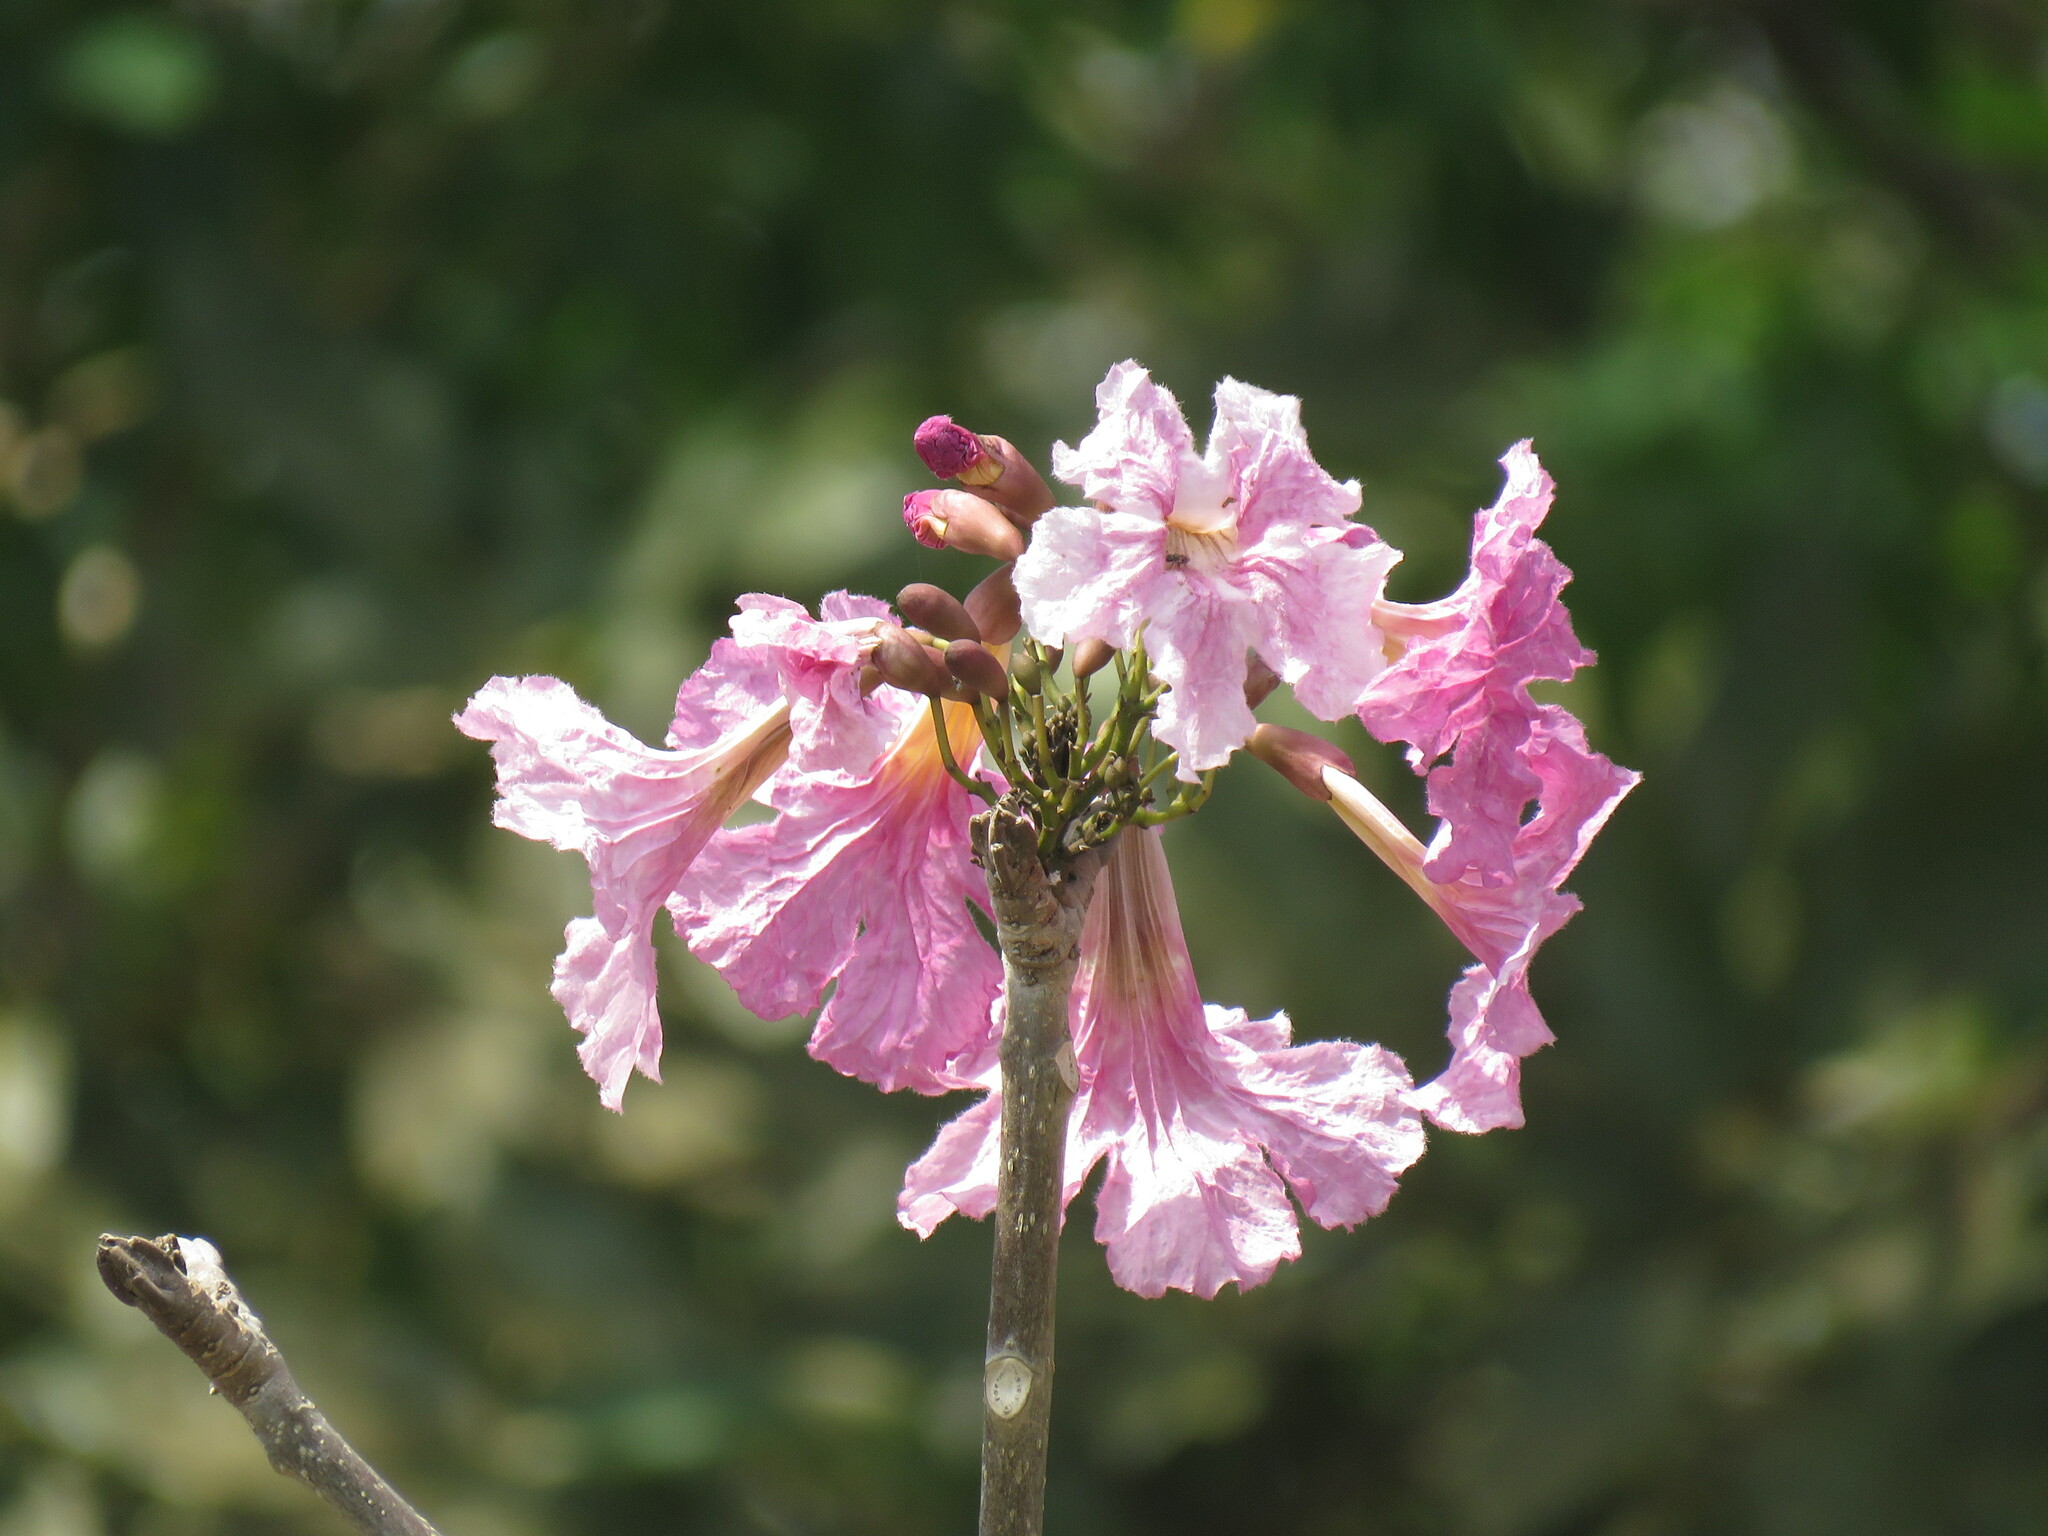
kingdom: Plantae
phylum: Tracheophyta
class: Magnoliopsida
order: Lamiales
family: Bignoniaceae
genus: Tabebuia
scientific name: Tabebuia rosea
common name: Pink poui
